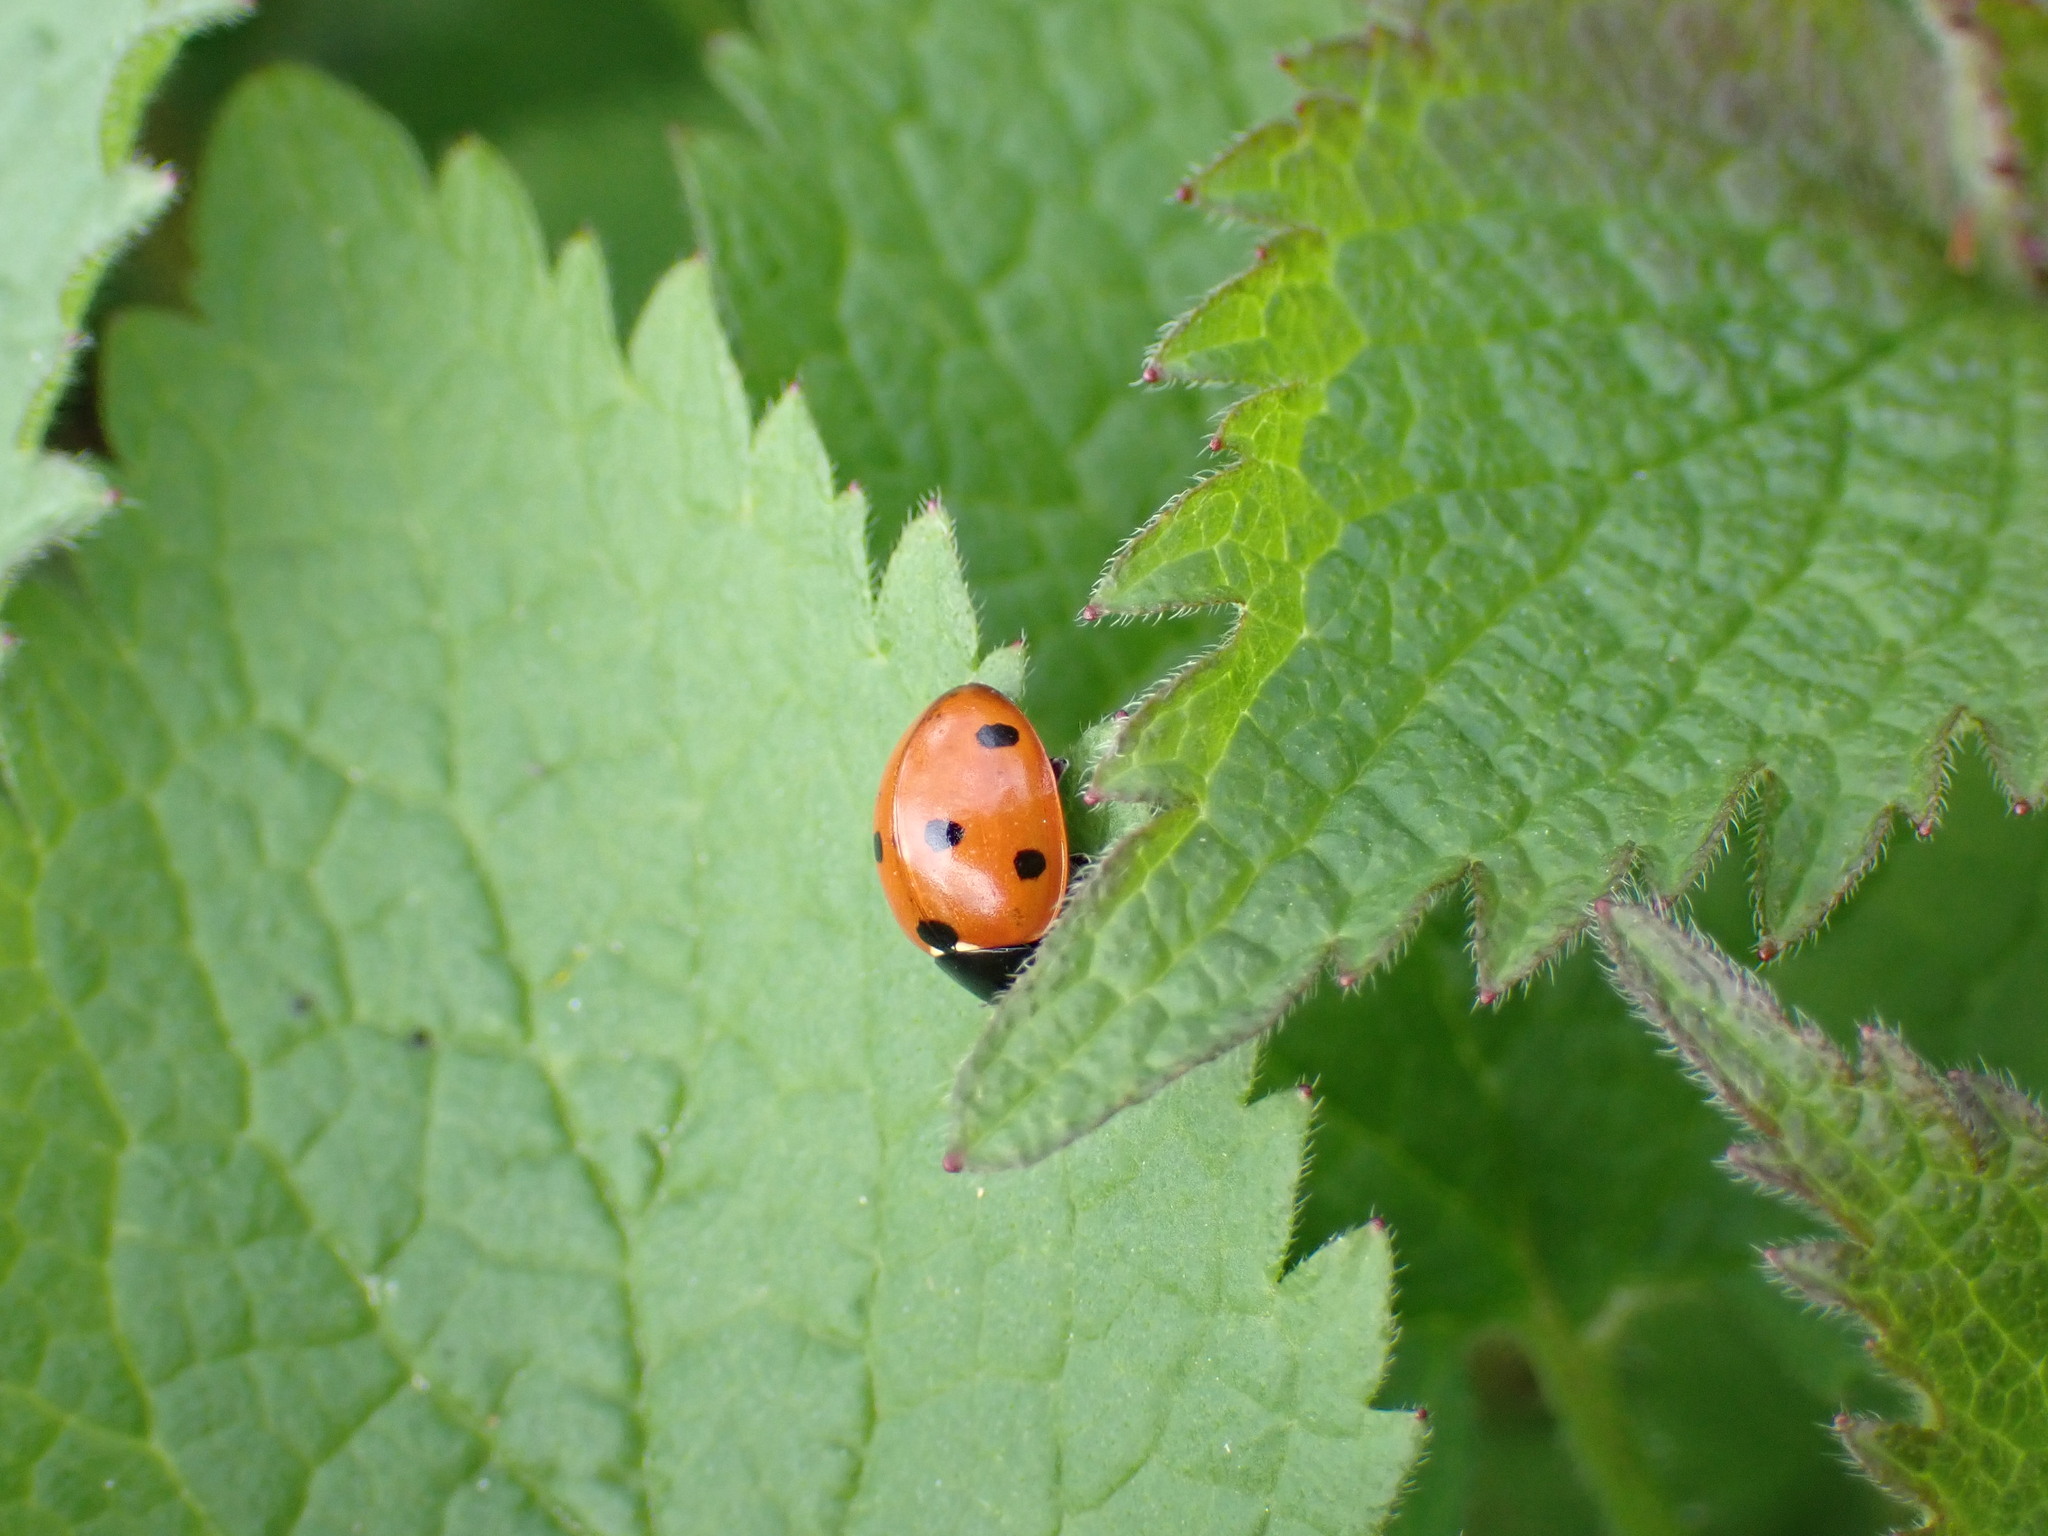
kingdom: Animalia
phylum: Arthropoda
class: Insecta
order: Coleoptera
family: Coccinellidae
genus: Coccinella
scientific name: Coccinella septempunctata
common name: Sevenspotted lady beetle
